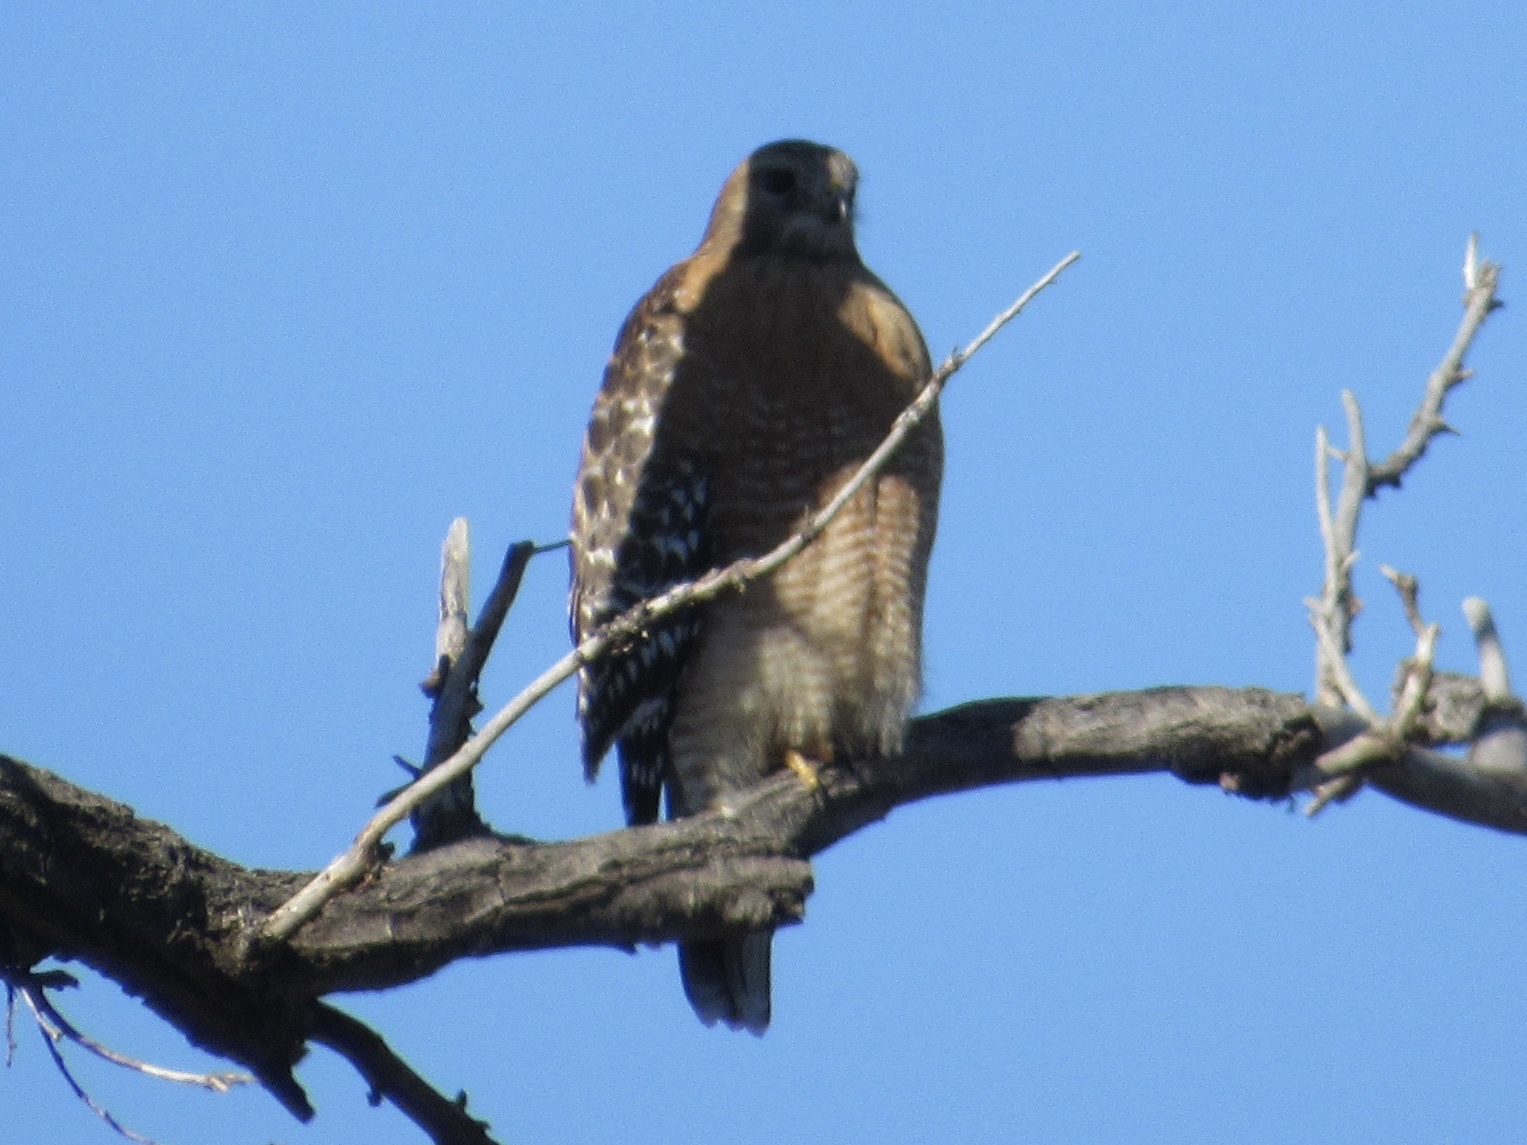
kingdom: Animalia
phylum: Chordata
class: Aves
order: Accipitriformes
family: Accipitridae
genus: Buteo
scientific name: Buteo lineatus
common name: Red-shouldered hawk
